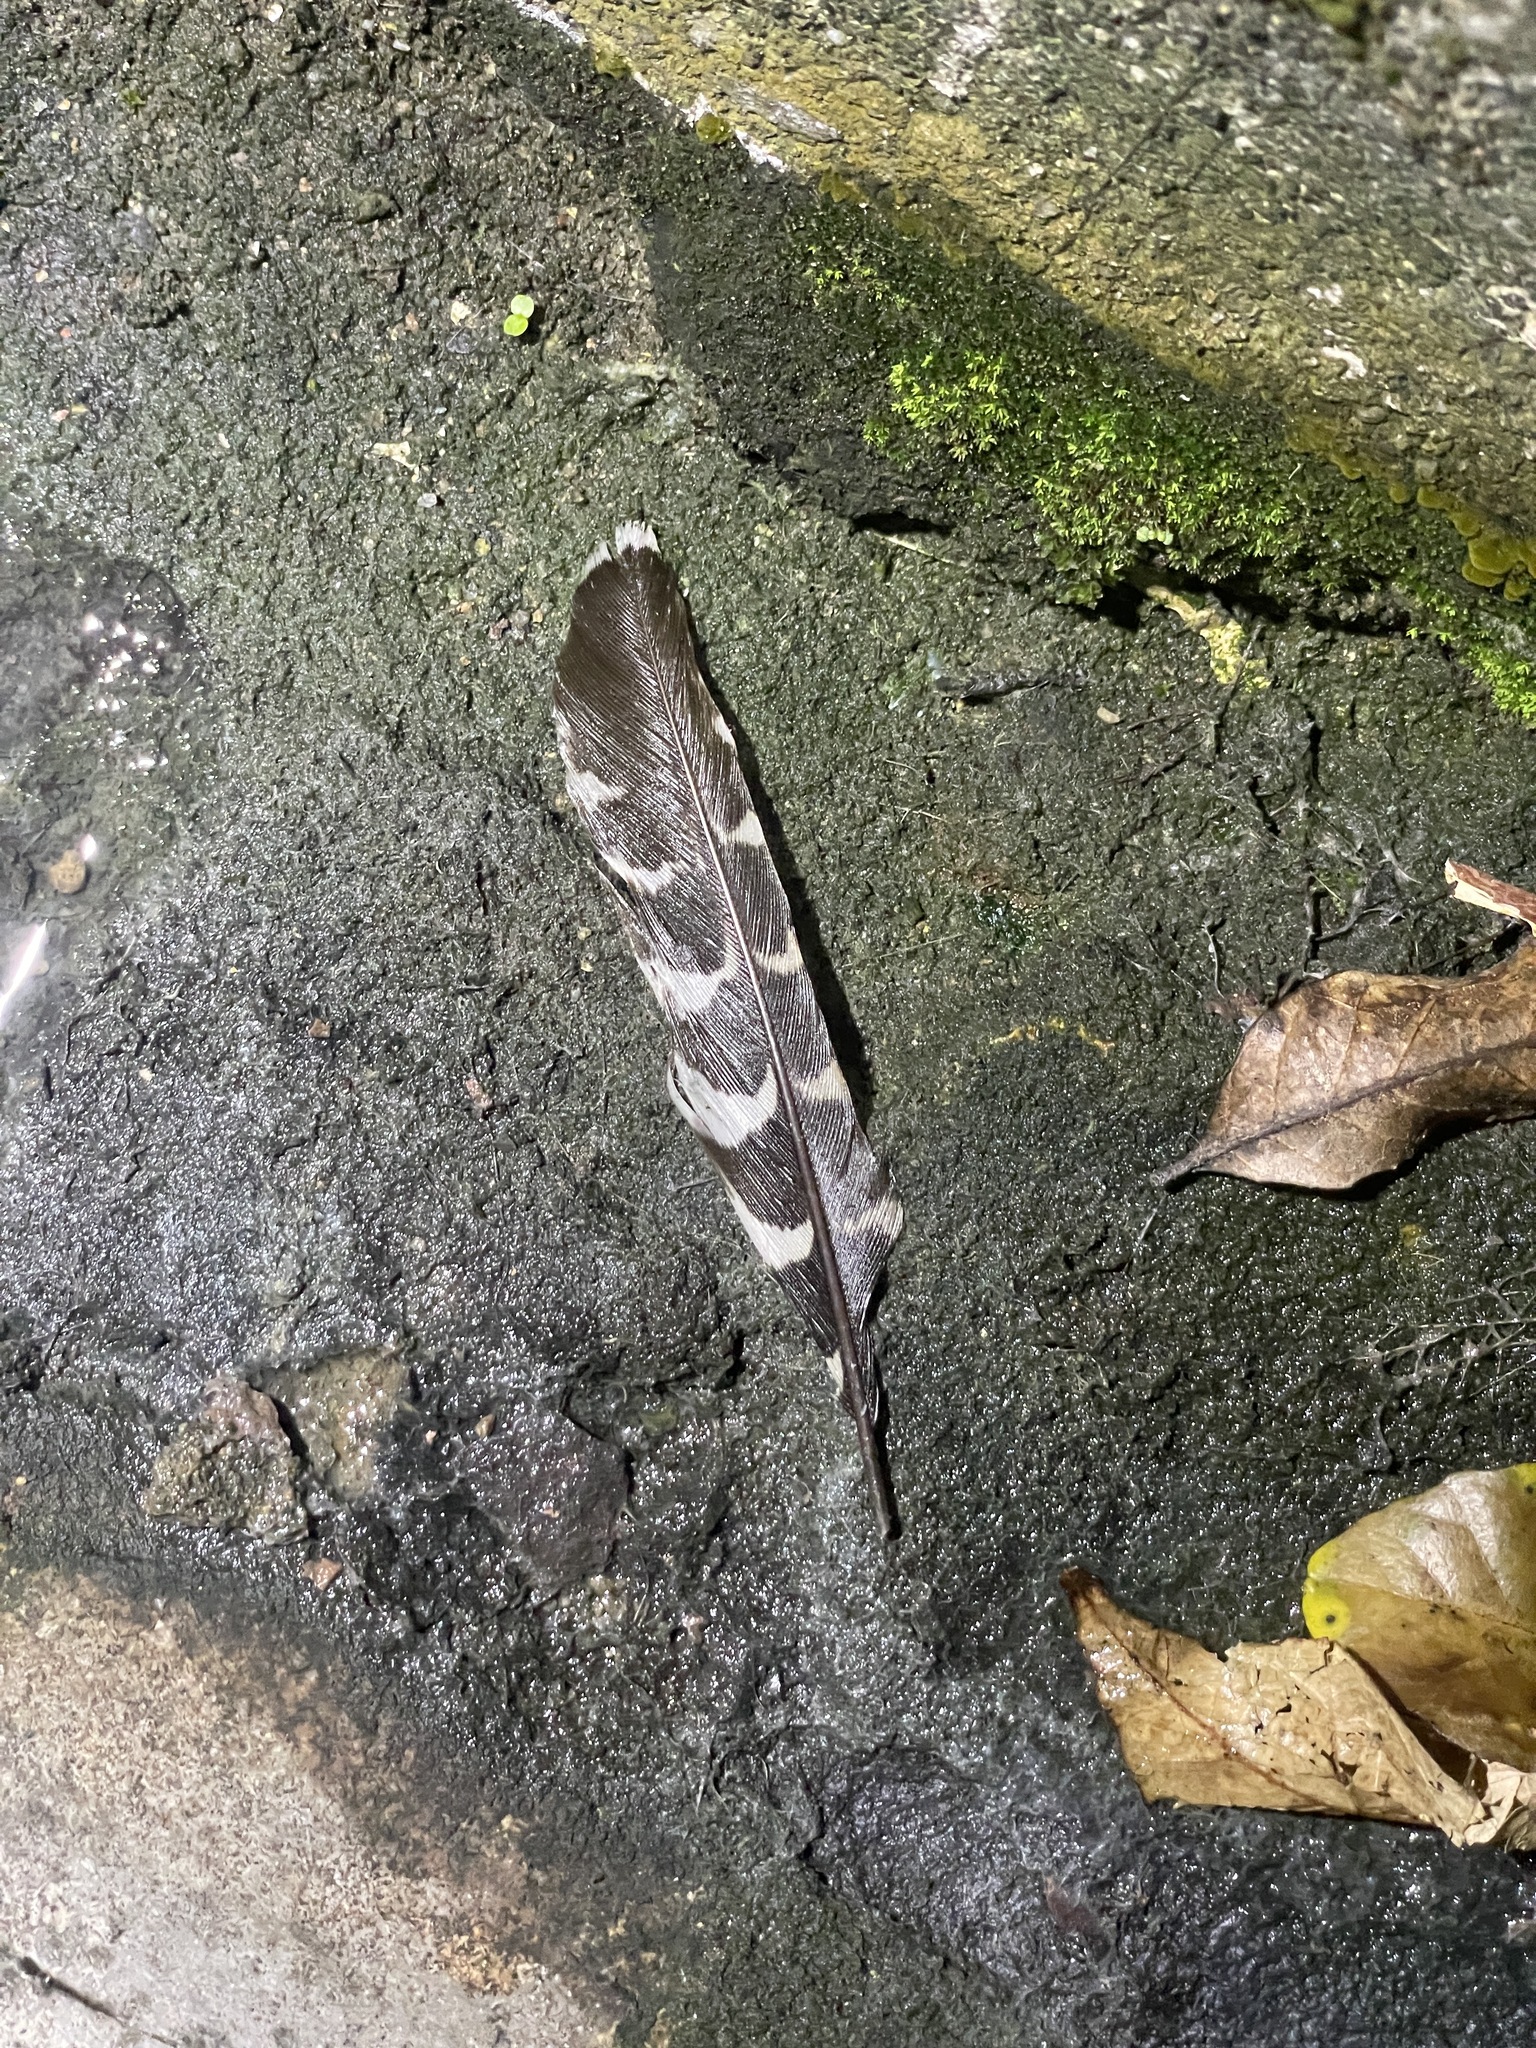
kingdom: Animalia
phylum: Chordata
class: Aves
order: Cuculiformes
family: Cuculidae
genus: Eudynamys
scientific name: Eudynamys scolopaceus
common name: Asian koel
